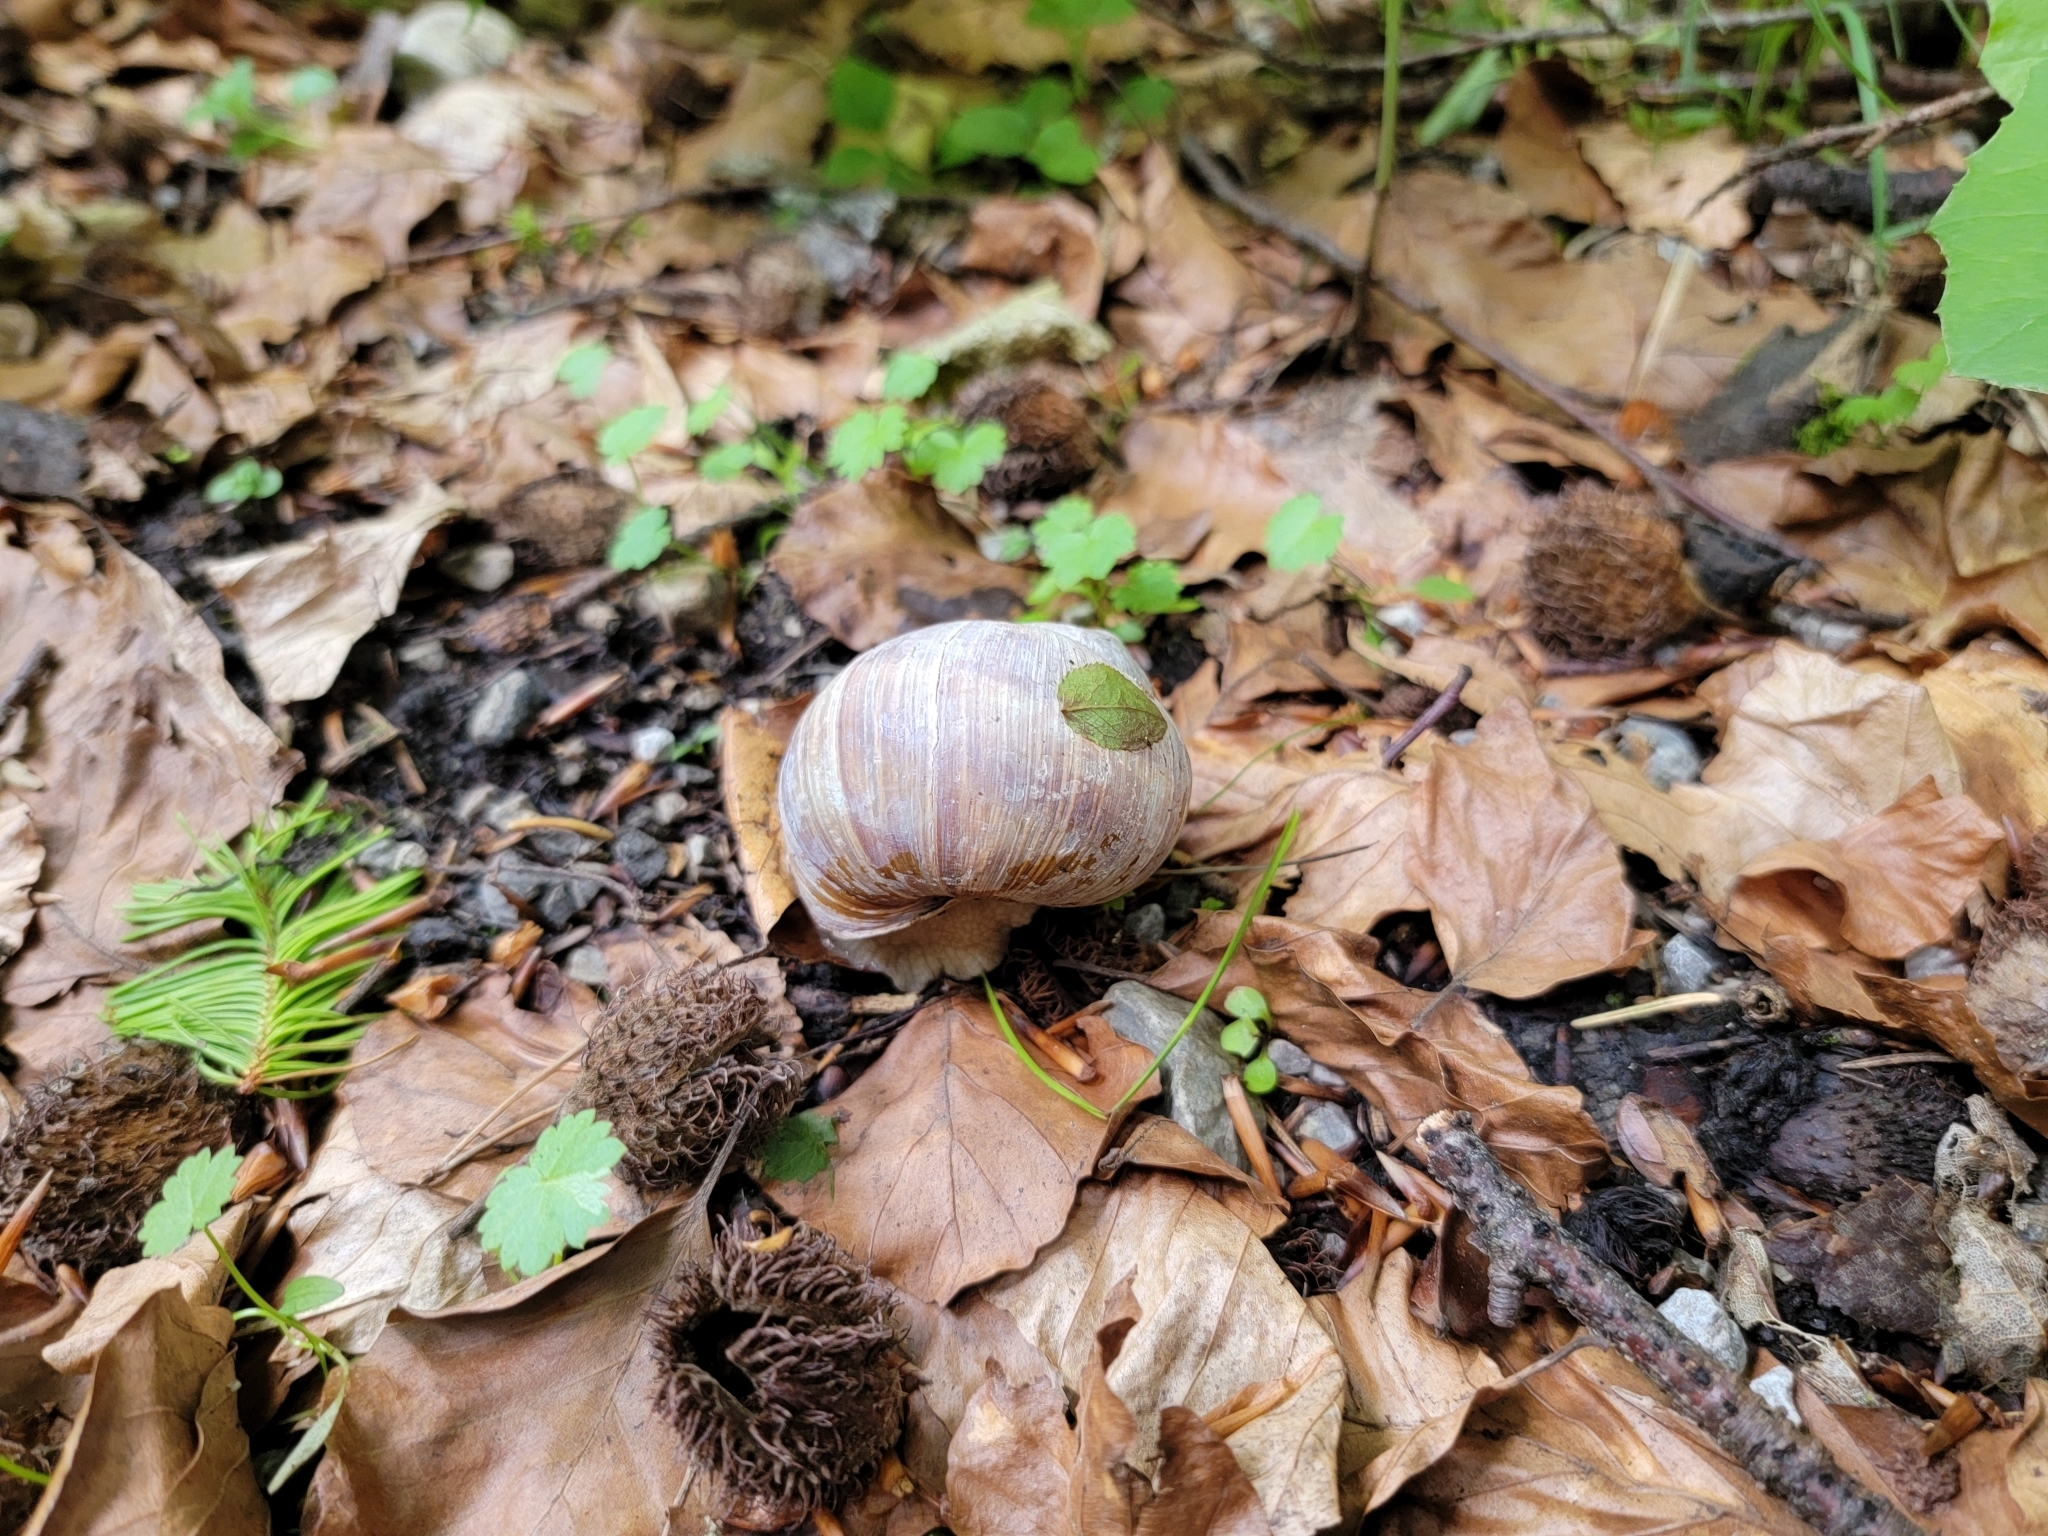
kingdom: Animalia
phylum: Mollusca
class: Gastropoda
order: Stylommatophora
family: Helicidae
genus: Helix
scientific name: Helix pomatia
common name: Roman snail
